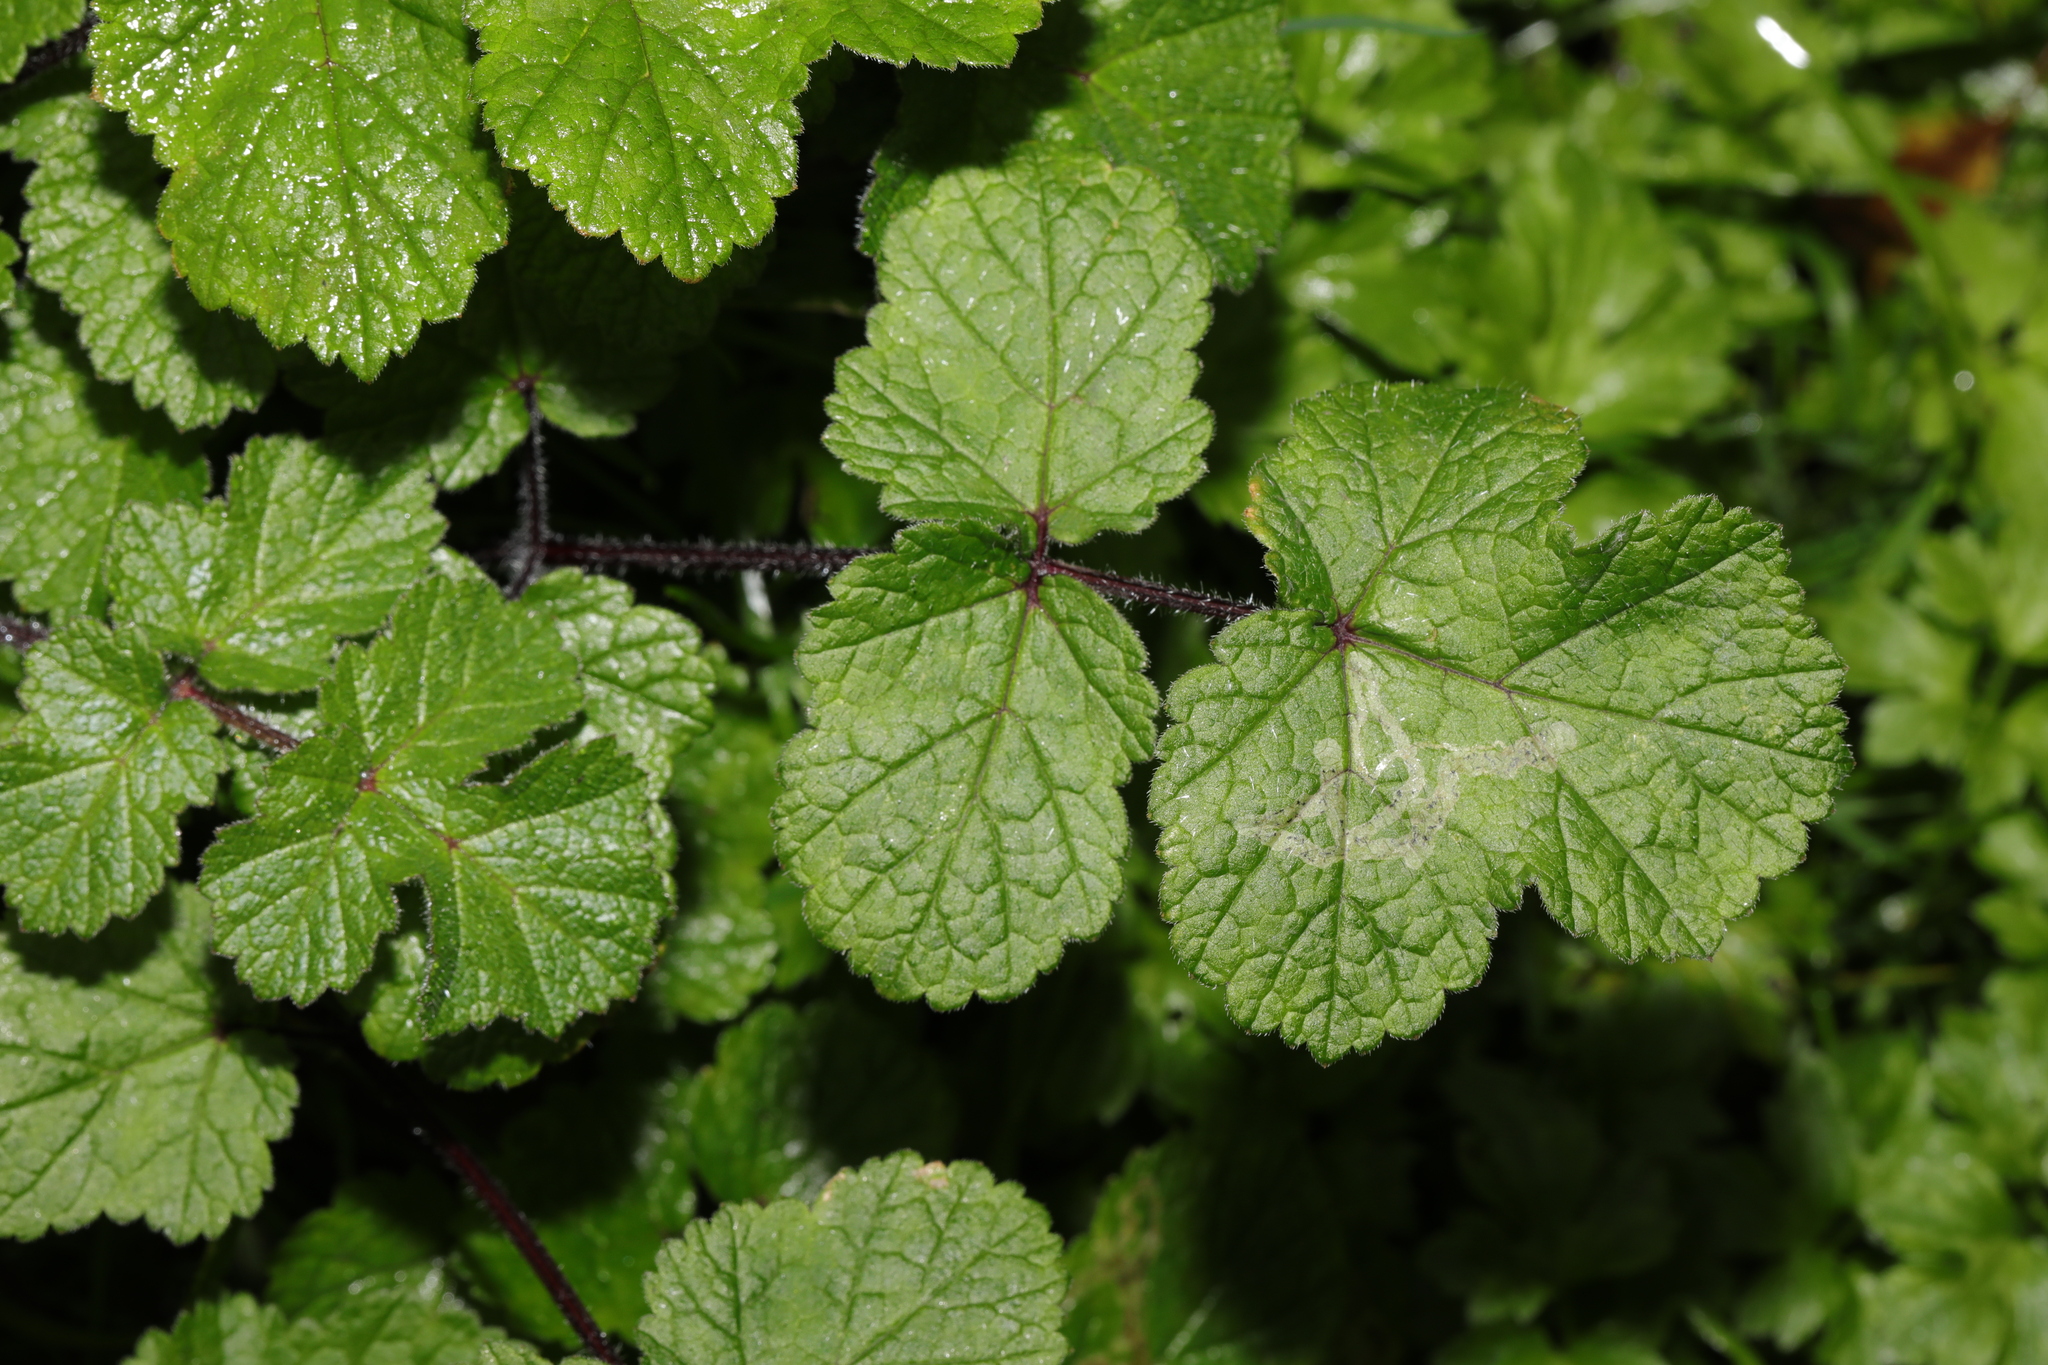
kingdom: Plantae
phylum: Tracheophyta
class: Magnoliopsida
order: Apiales
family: Apiaceae
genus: Heracleum
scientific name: Heracleum sphondylium
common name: Hogweed
